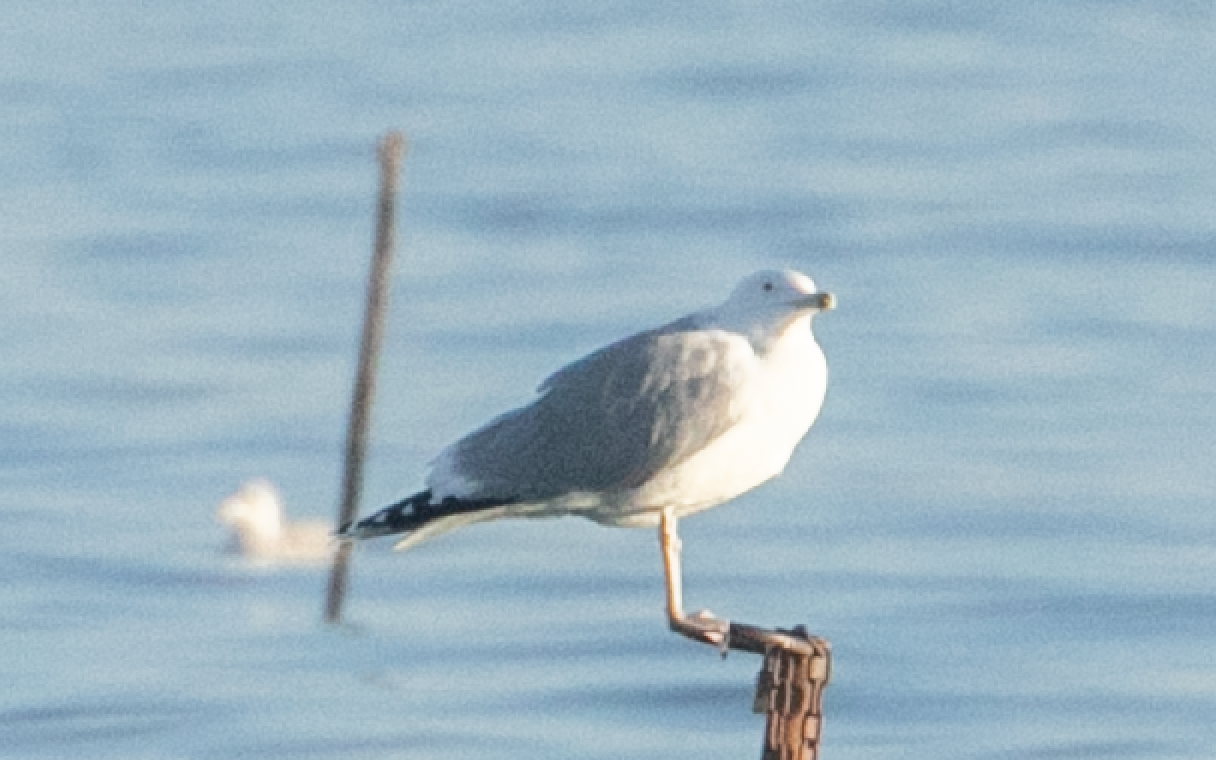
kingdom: Animalia
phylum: Chordata
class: Aves
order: Charadriiformes
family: Laridae
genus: Larus
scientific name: Larus cachinnans
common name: Caspian gull
